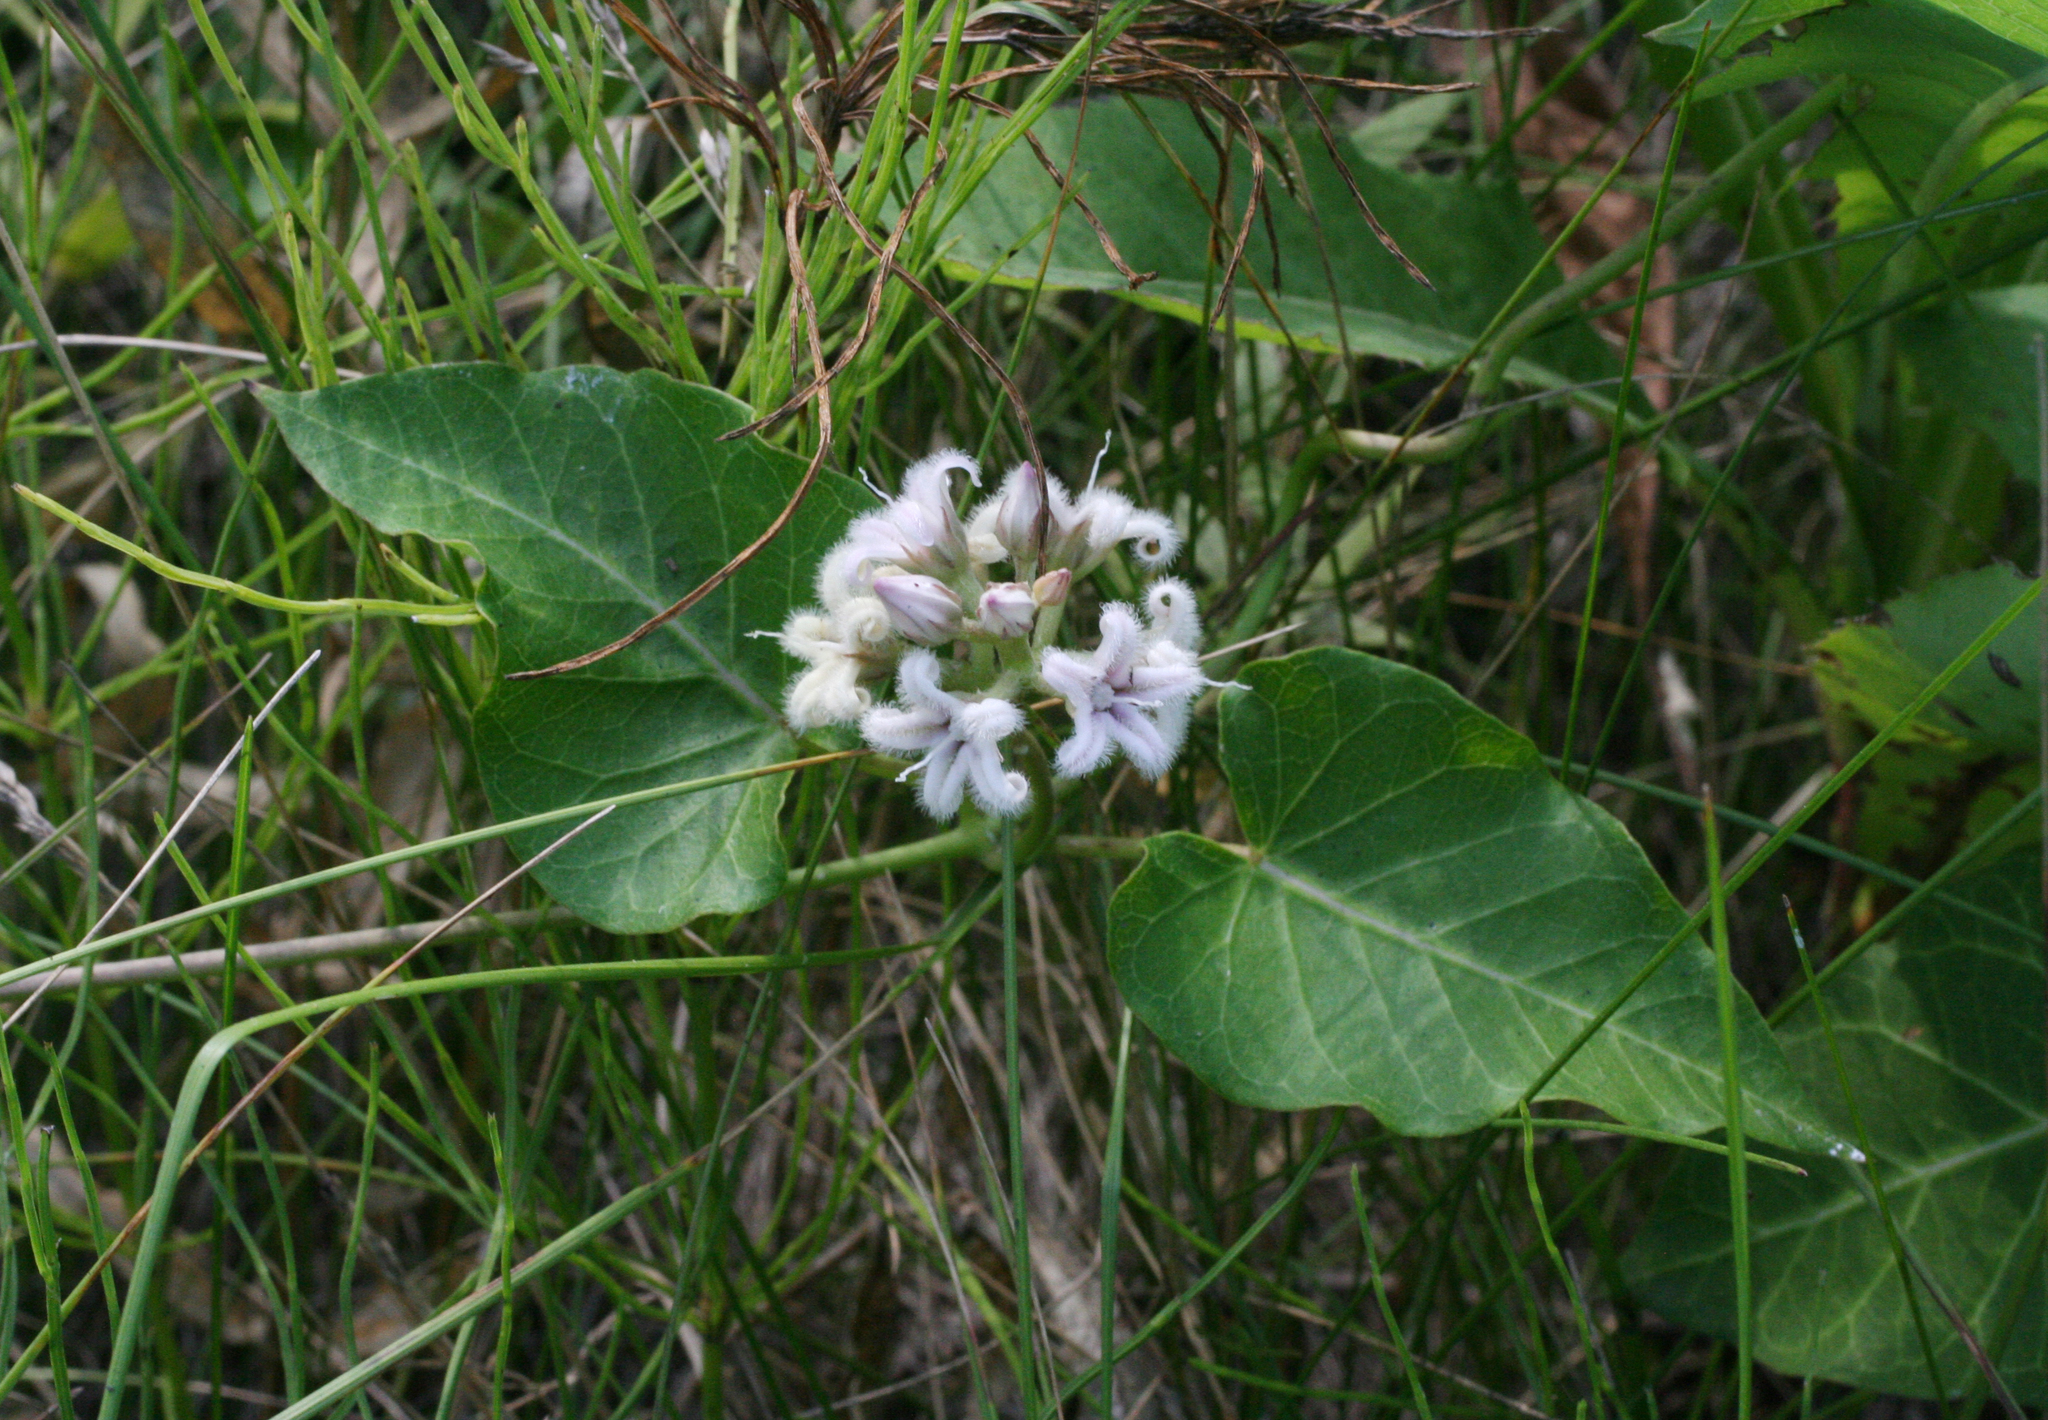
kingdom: Plantae
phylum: Tracheophyta
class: Magnoliopsida
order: Gentianales
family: Apocynaceae
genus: Cynanchum
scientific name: Cynanchum rostellatum
